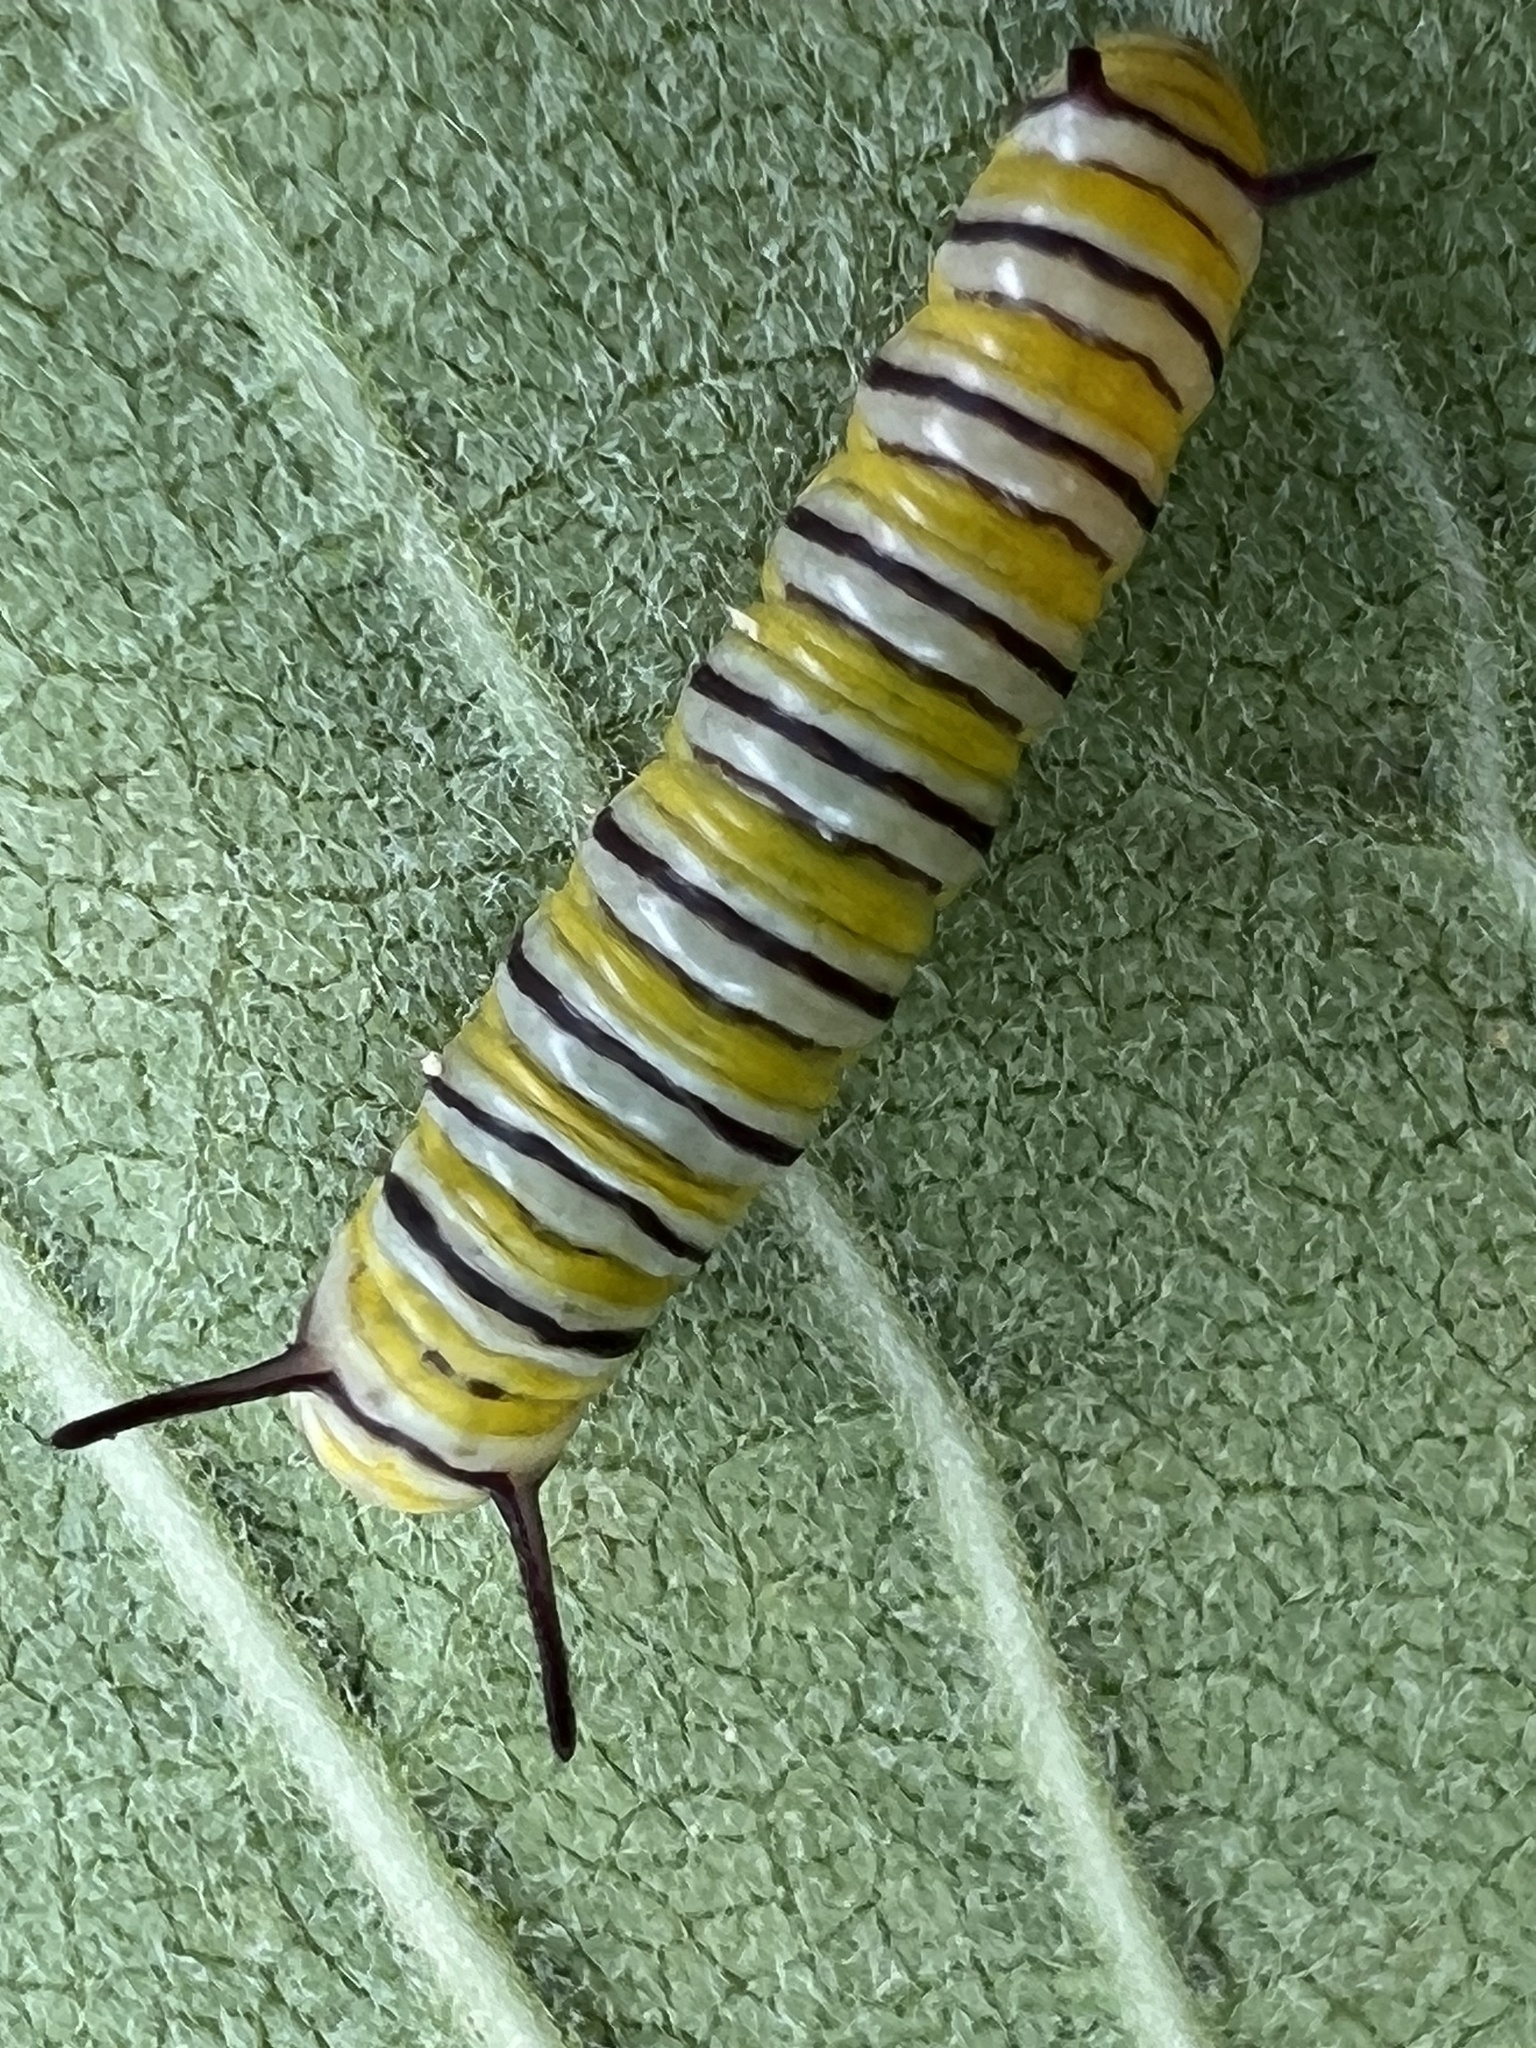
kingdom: Animalia
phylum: Arthropoda
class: Insecta
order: Lepidoptera
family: Nymphalidae
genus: Danaus
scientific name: Danaus plexippus
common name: Monarch
